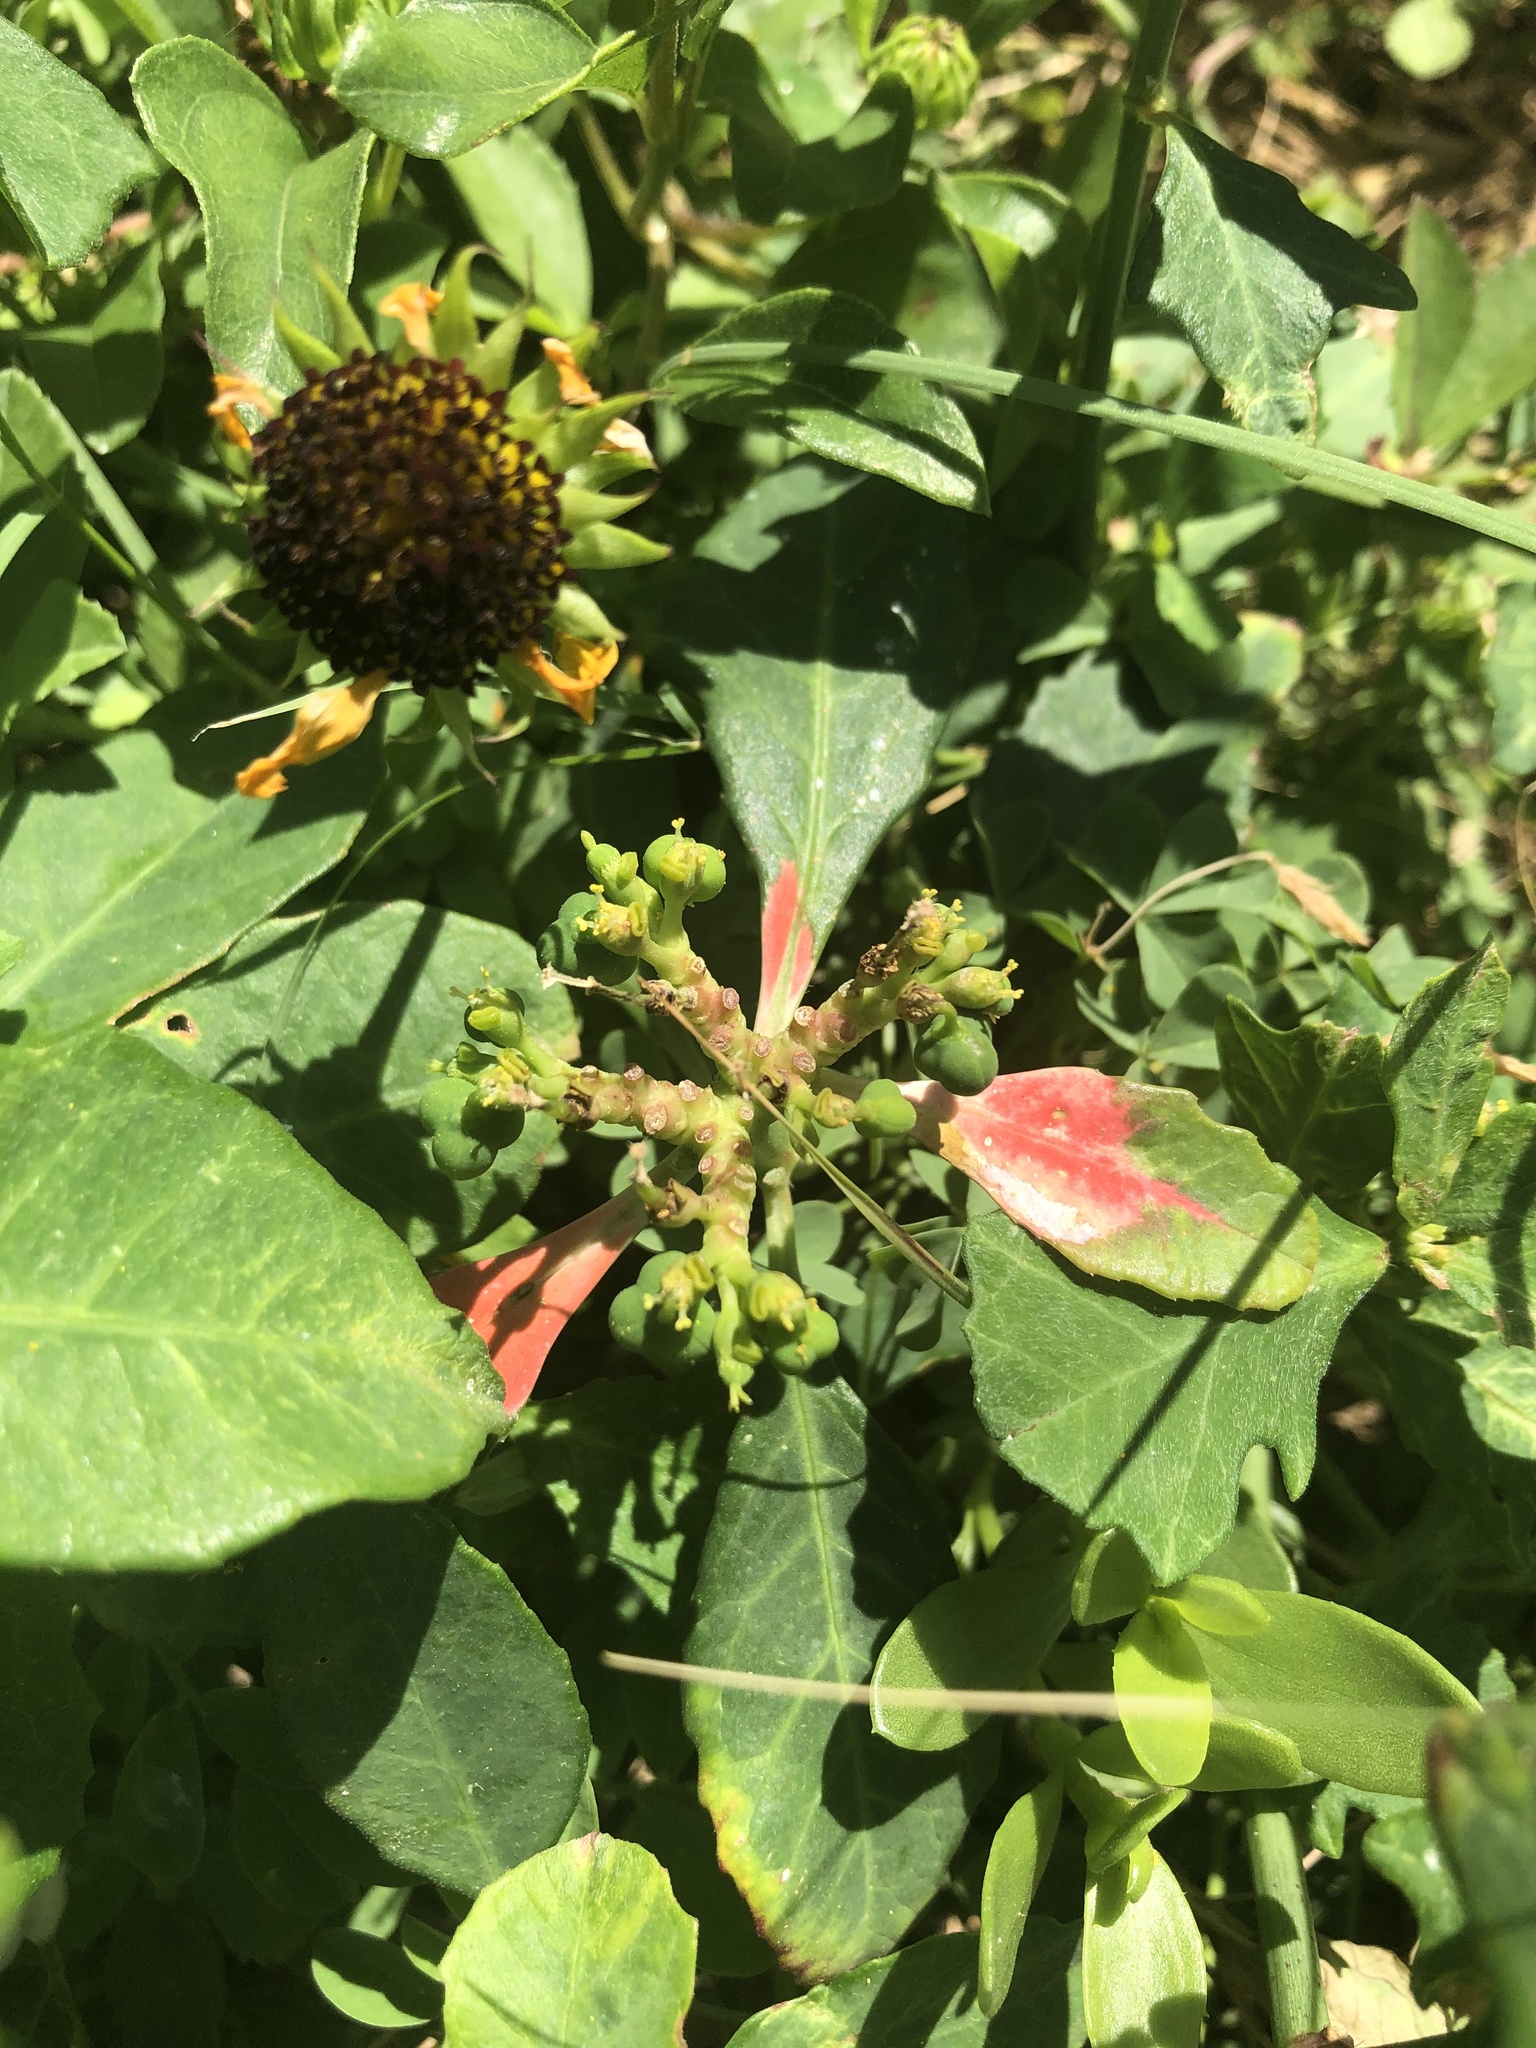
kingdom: Plantae
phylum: Tracheophyta
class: Magnoliopsida
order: Malpighiales
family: Euphorbiaceae
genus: Euphorbia
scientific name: Euphorbia heterophylla
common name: Mexican fireplant
